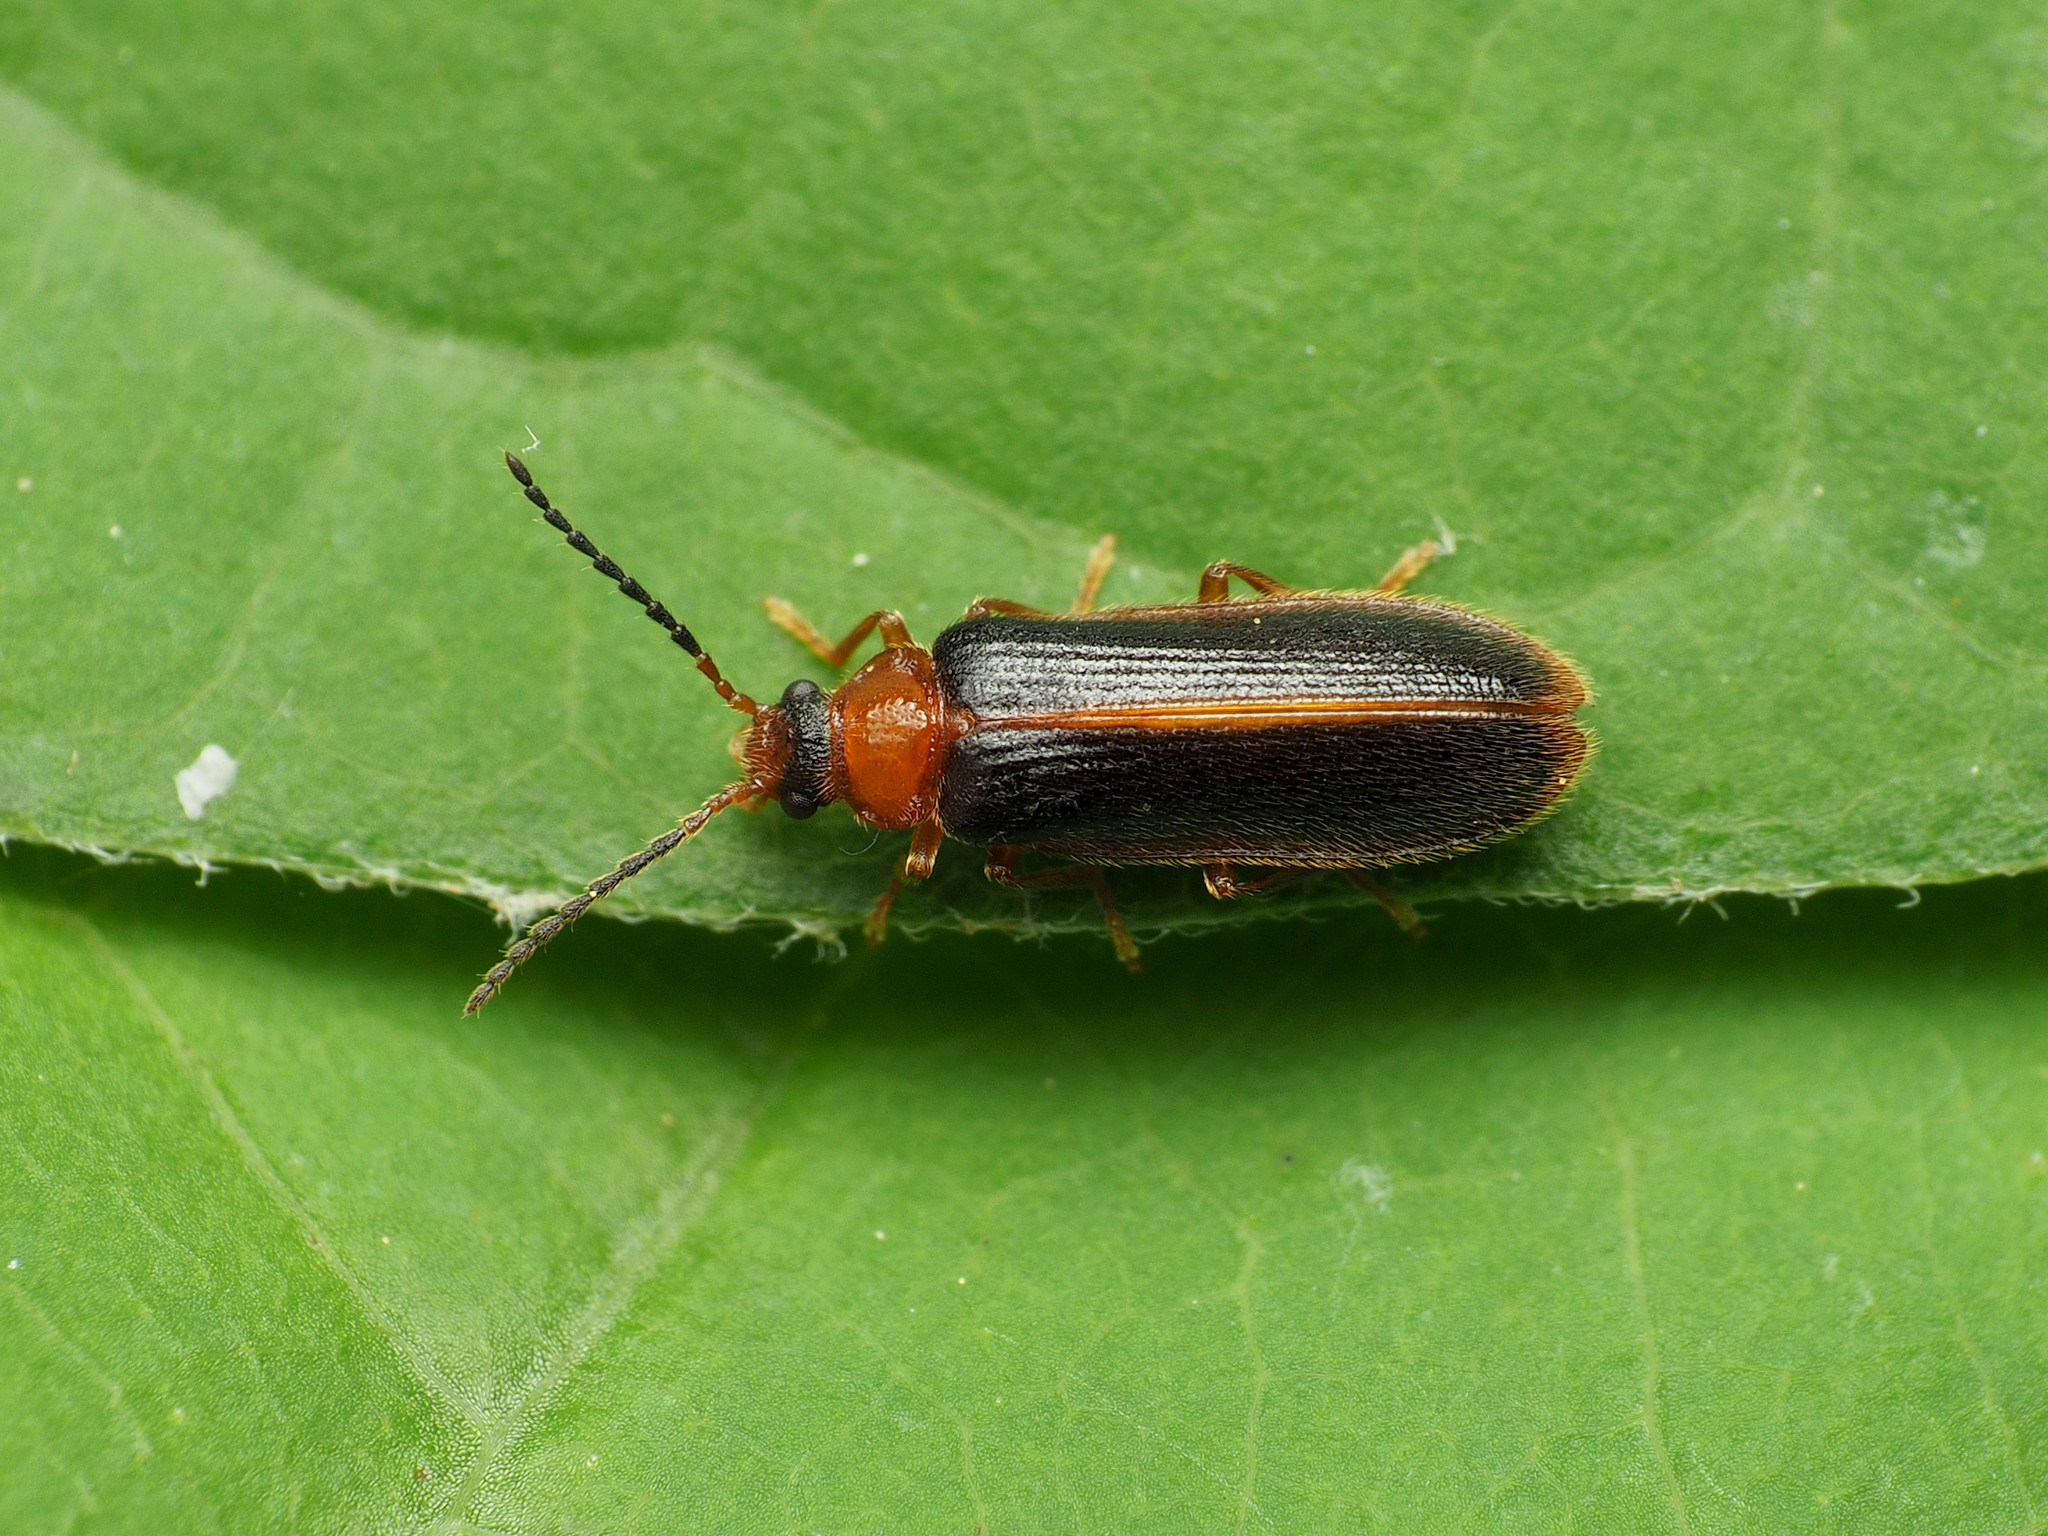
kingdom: Animalia
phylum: Arthropoda
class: Insecta
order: Coleoptera
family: Omethidae
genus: Omethes
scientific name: Omethes marginatus
